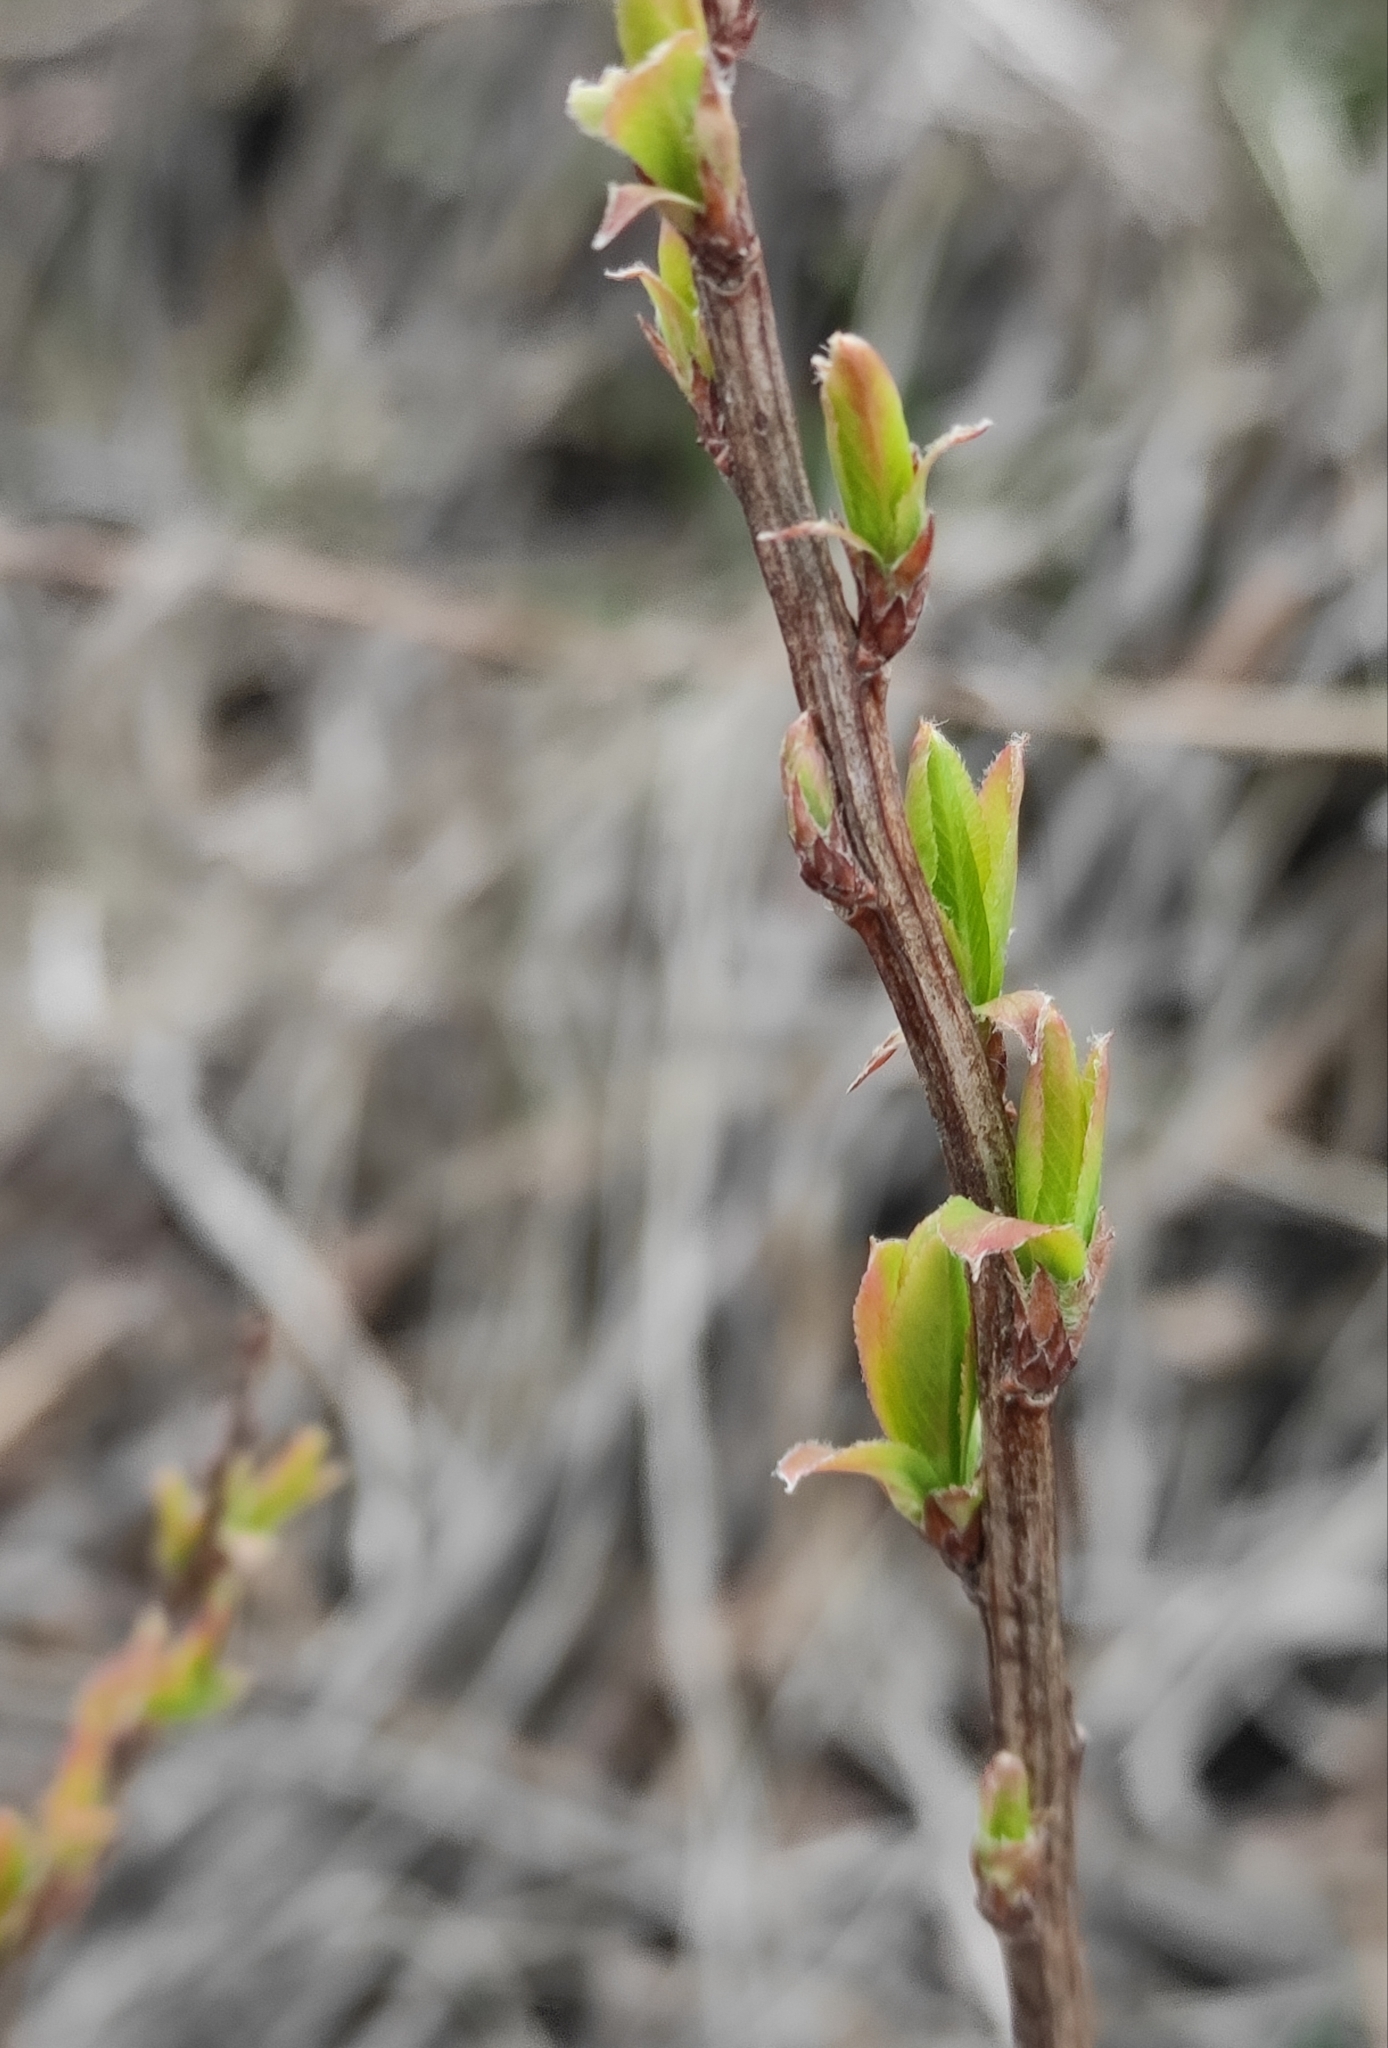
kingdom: Plantae
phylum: Tracheophyta
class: Magnoliopsida
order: Rosales
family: Rosaceae
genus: Spiraea
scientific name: Spiraea salicifolia
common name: Bridewort
